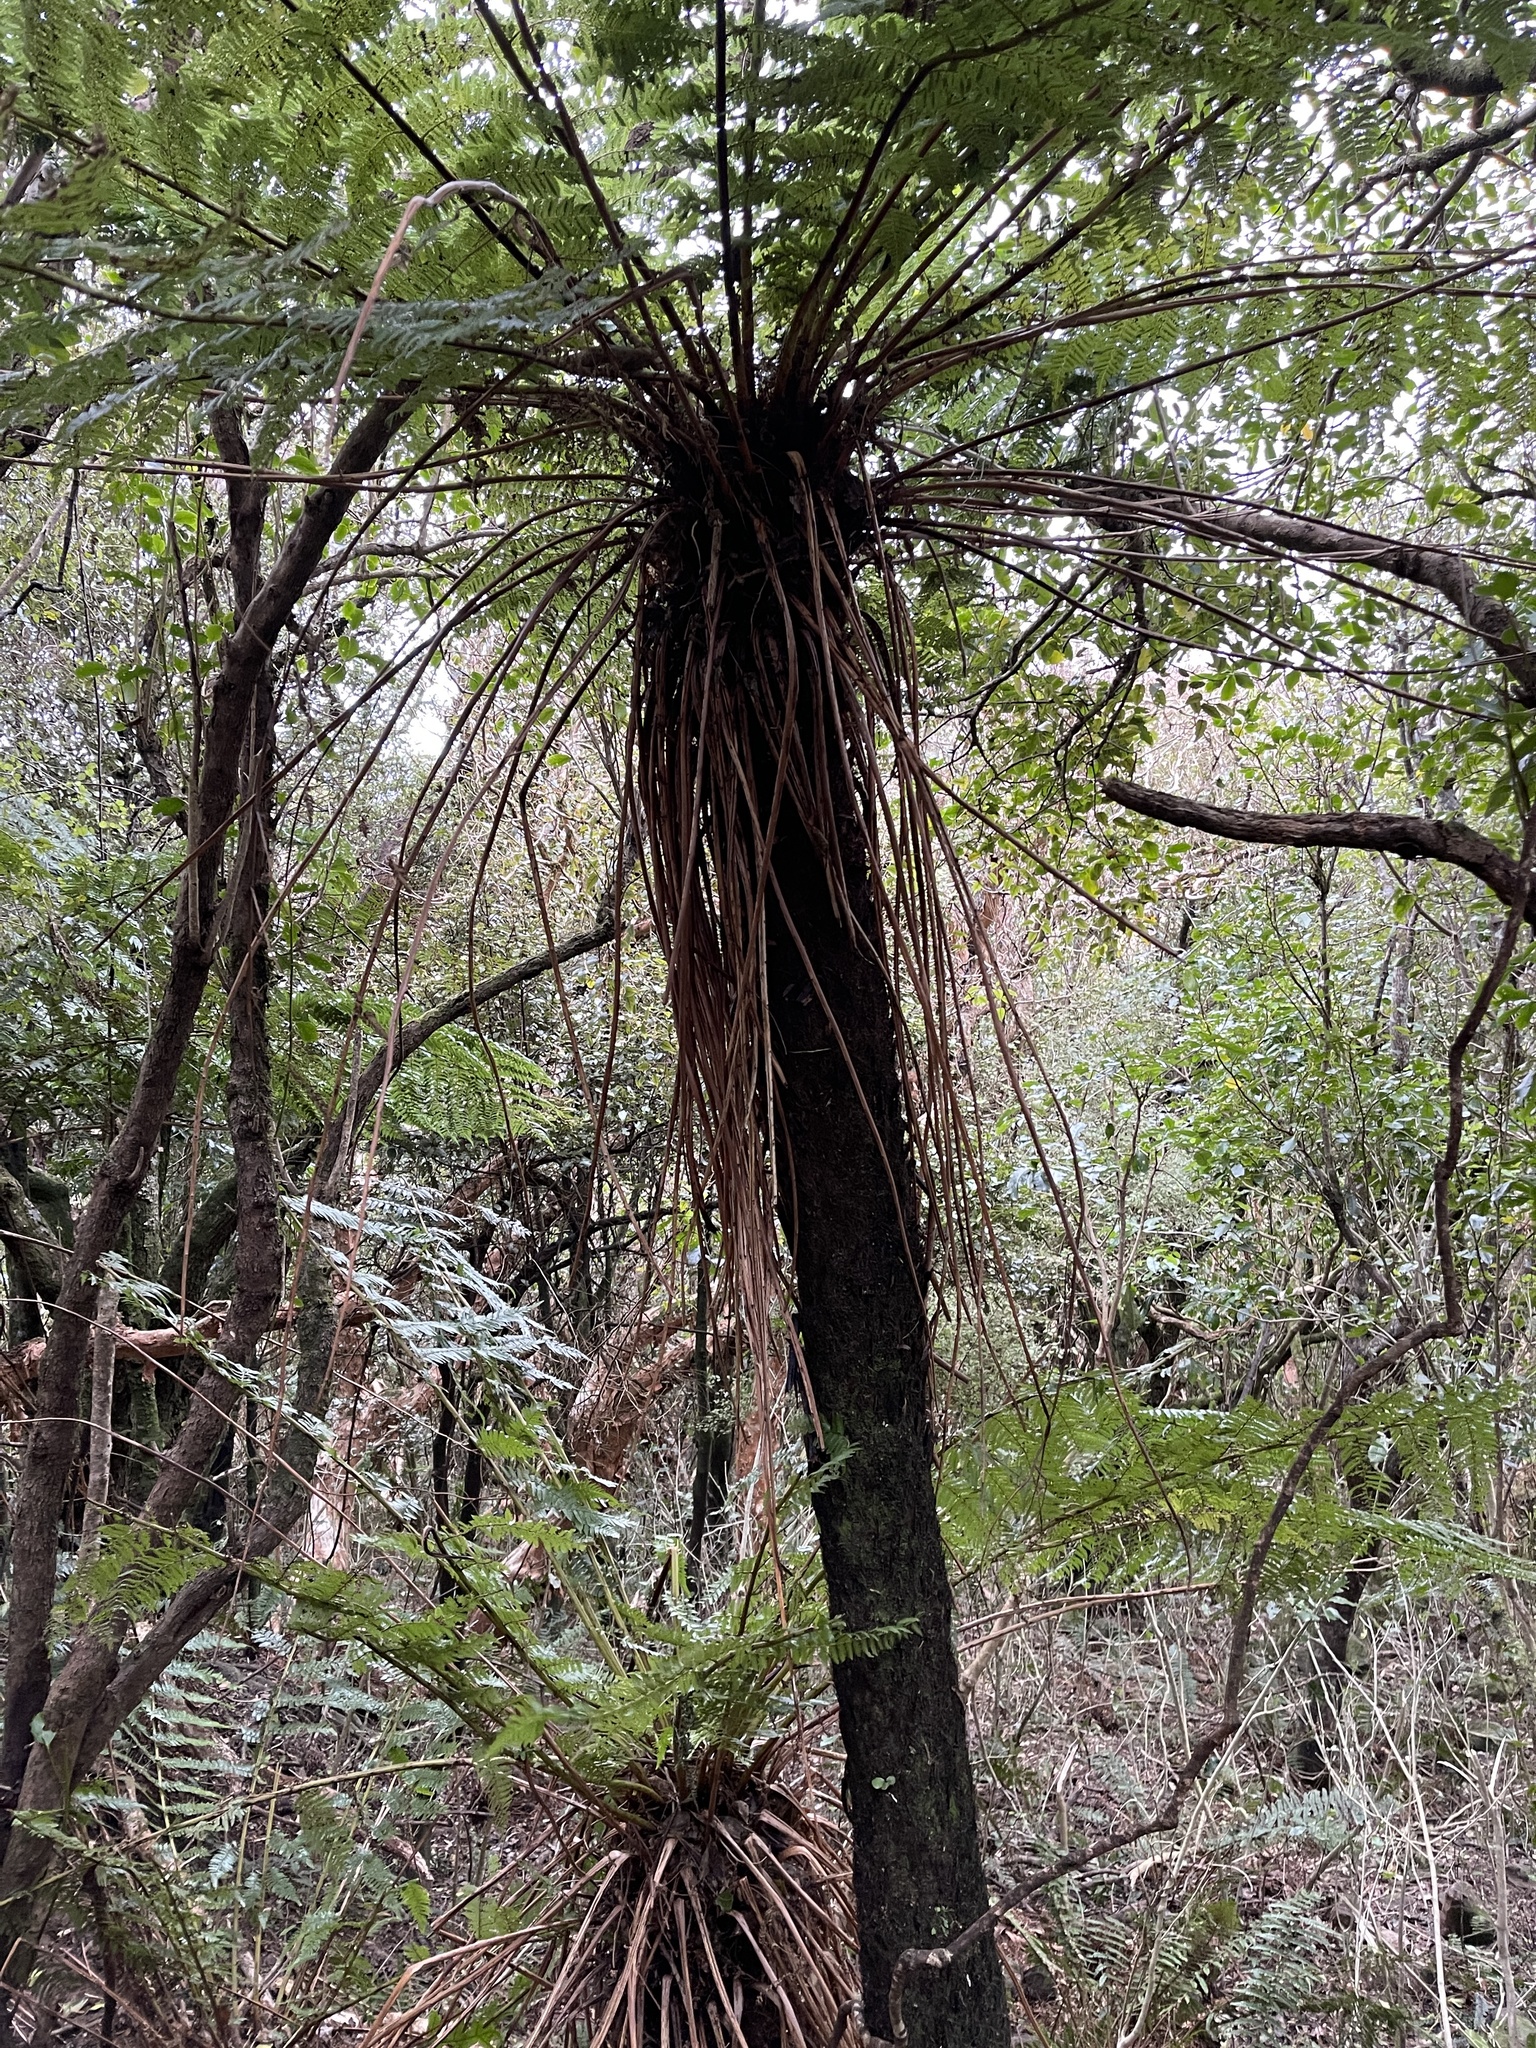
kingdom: Plantae
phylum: Tracheophyta
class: Polypodiopsida
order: Cyatheales
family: Cyatheaceae
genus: Alsophila
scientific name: Alsophila smithii
